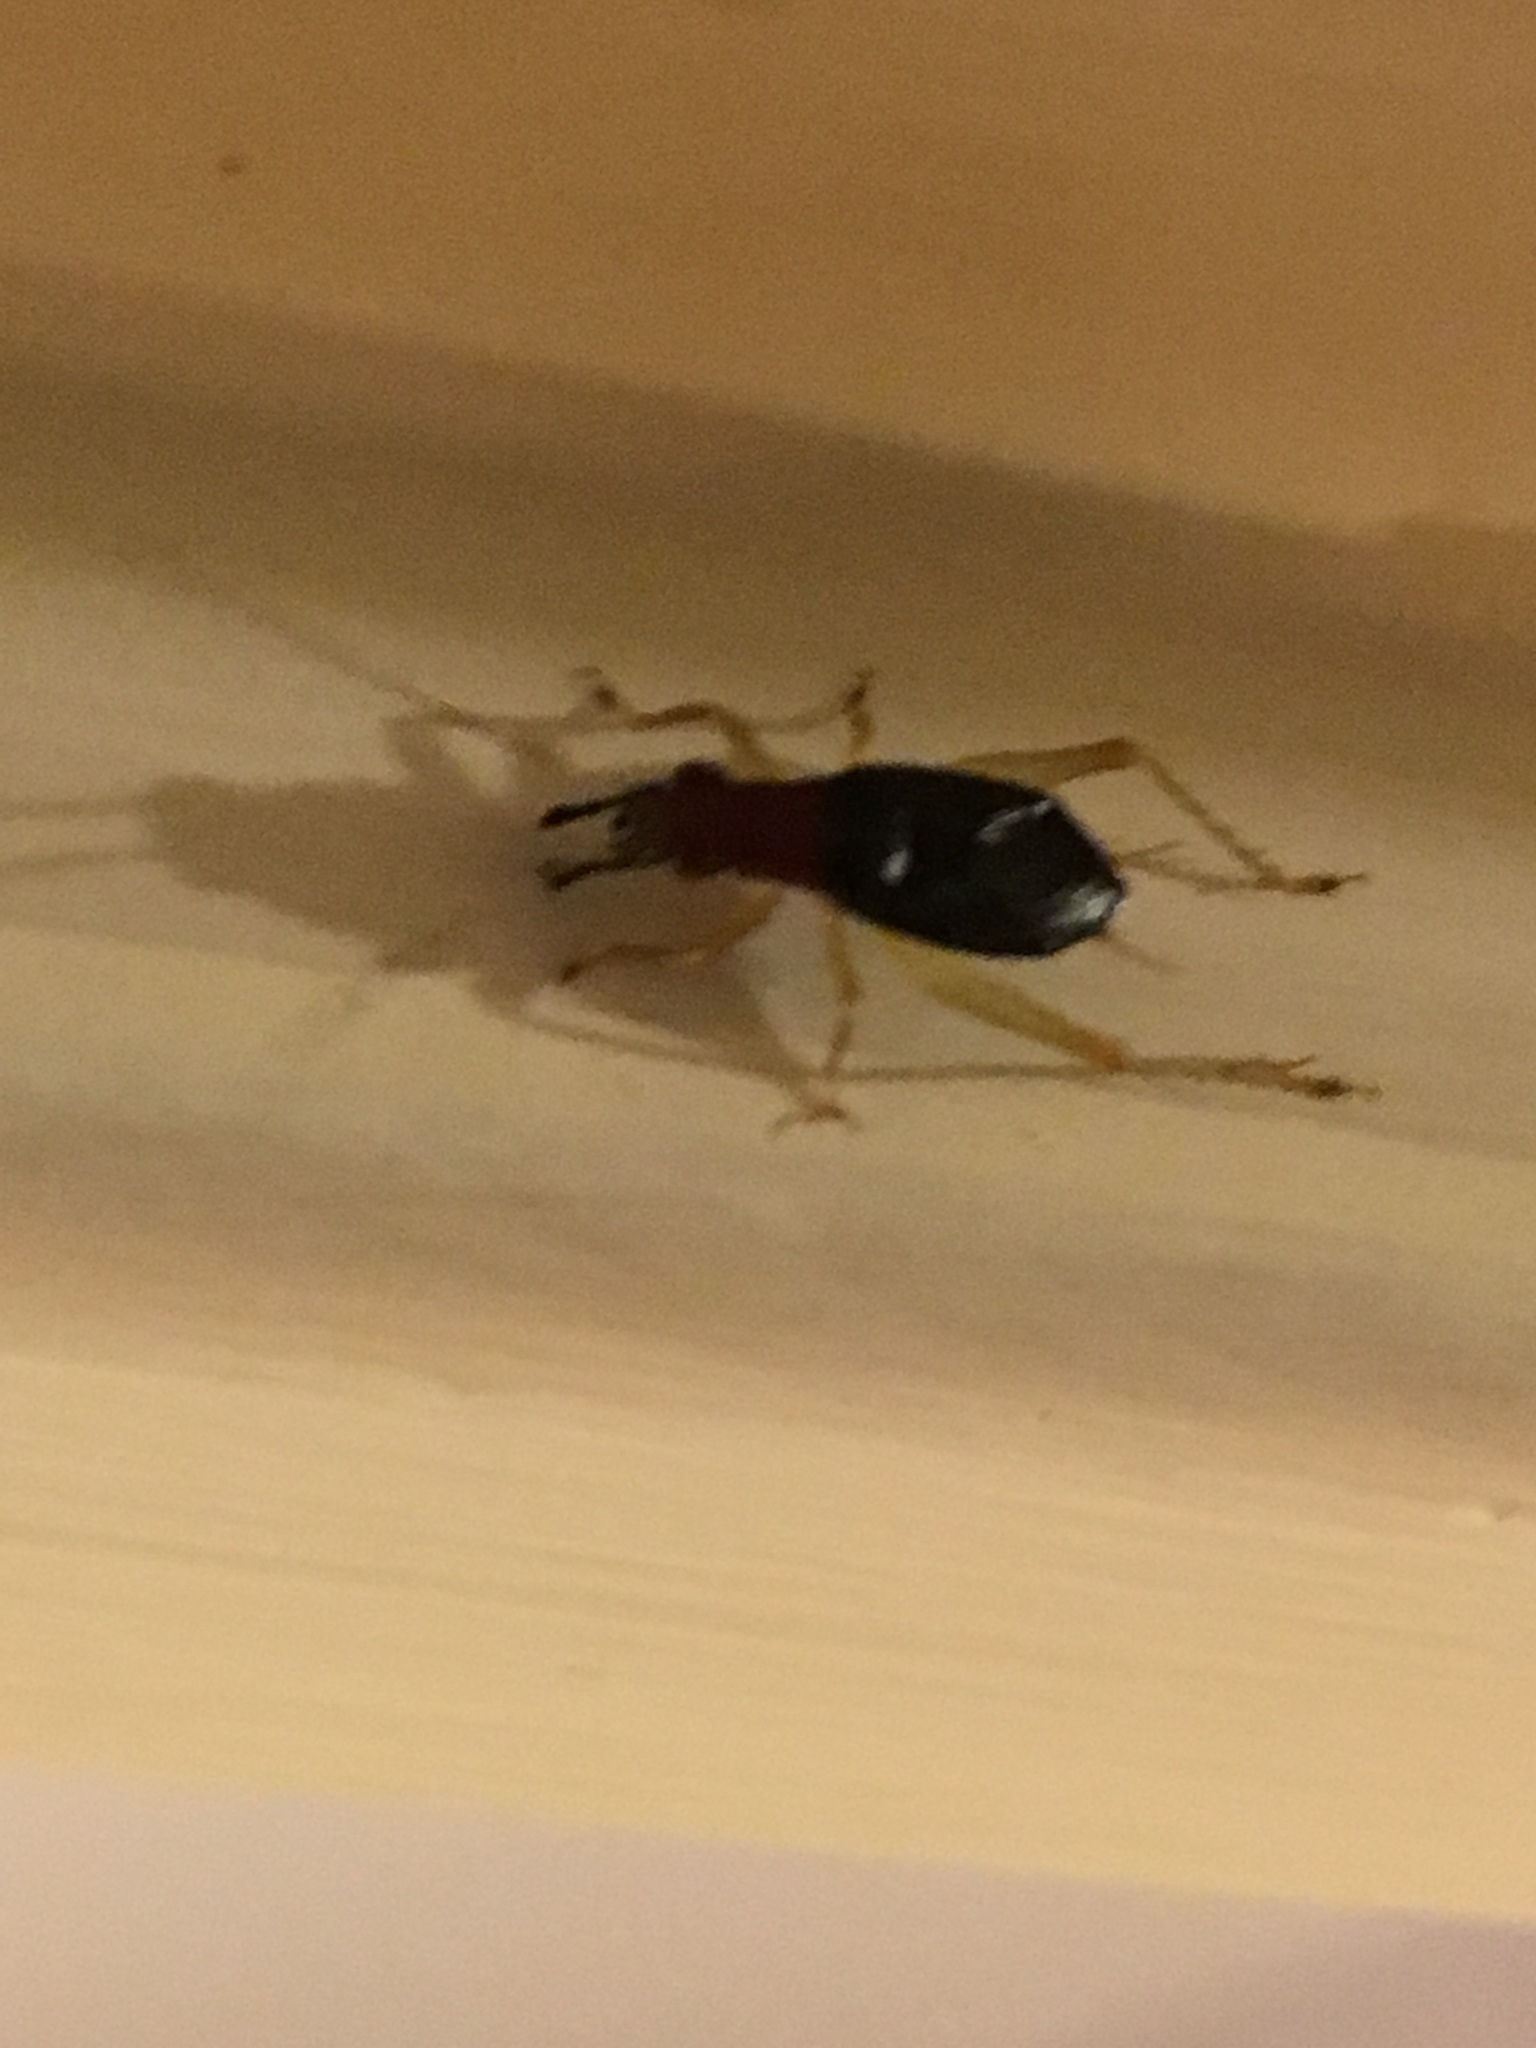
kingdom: Animalia
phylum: Arthropoda
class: Insecta
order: Orthoptera
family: Trigonidiidae
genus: Phyllopalpus
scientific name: Phyllopalpus pulchellus
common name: Handsome trig
